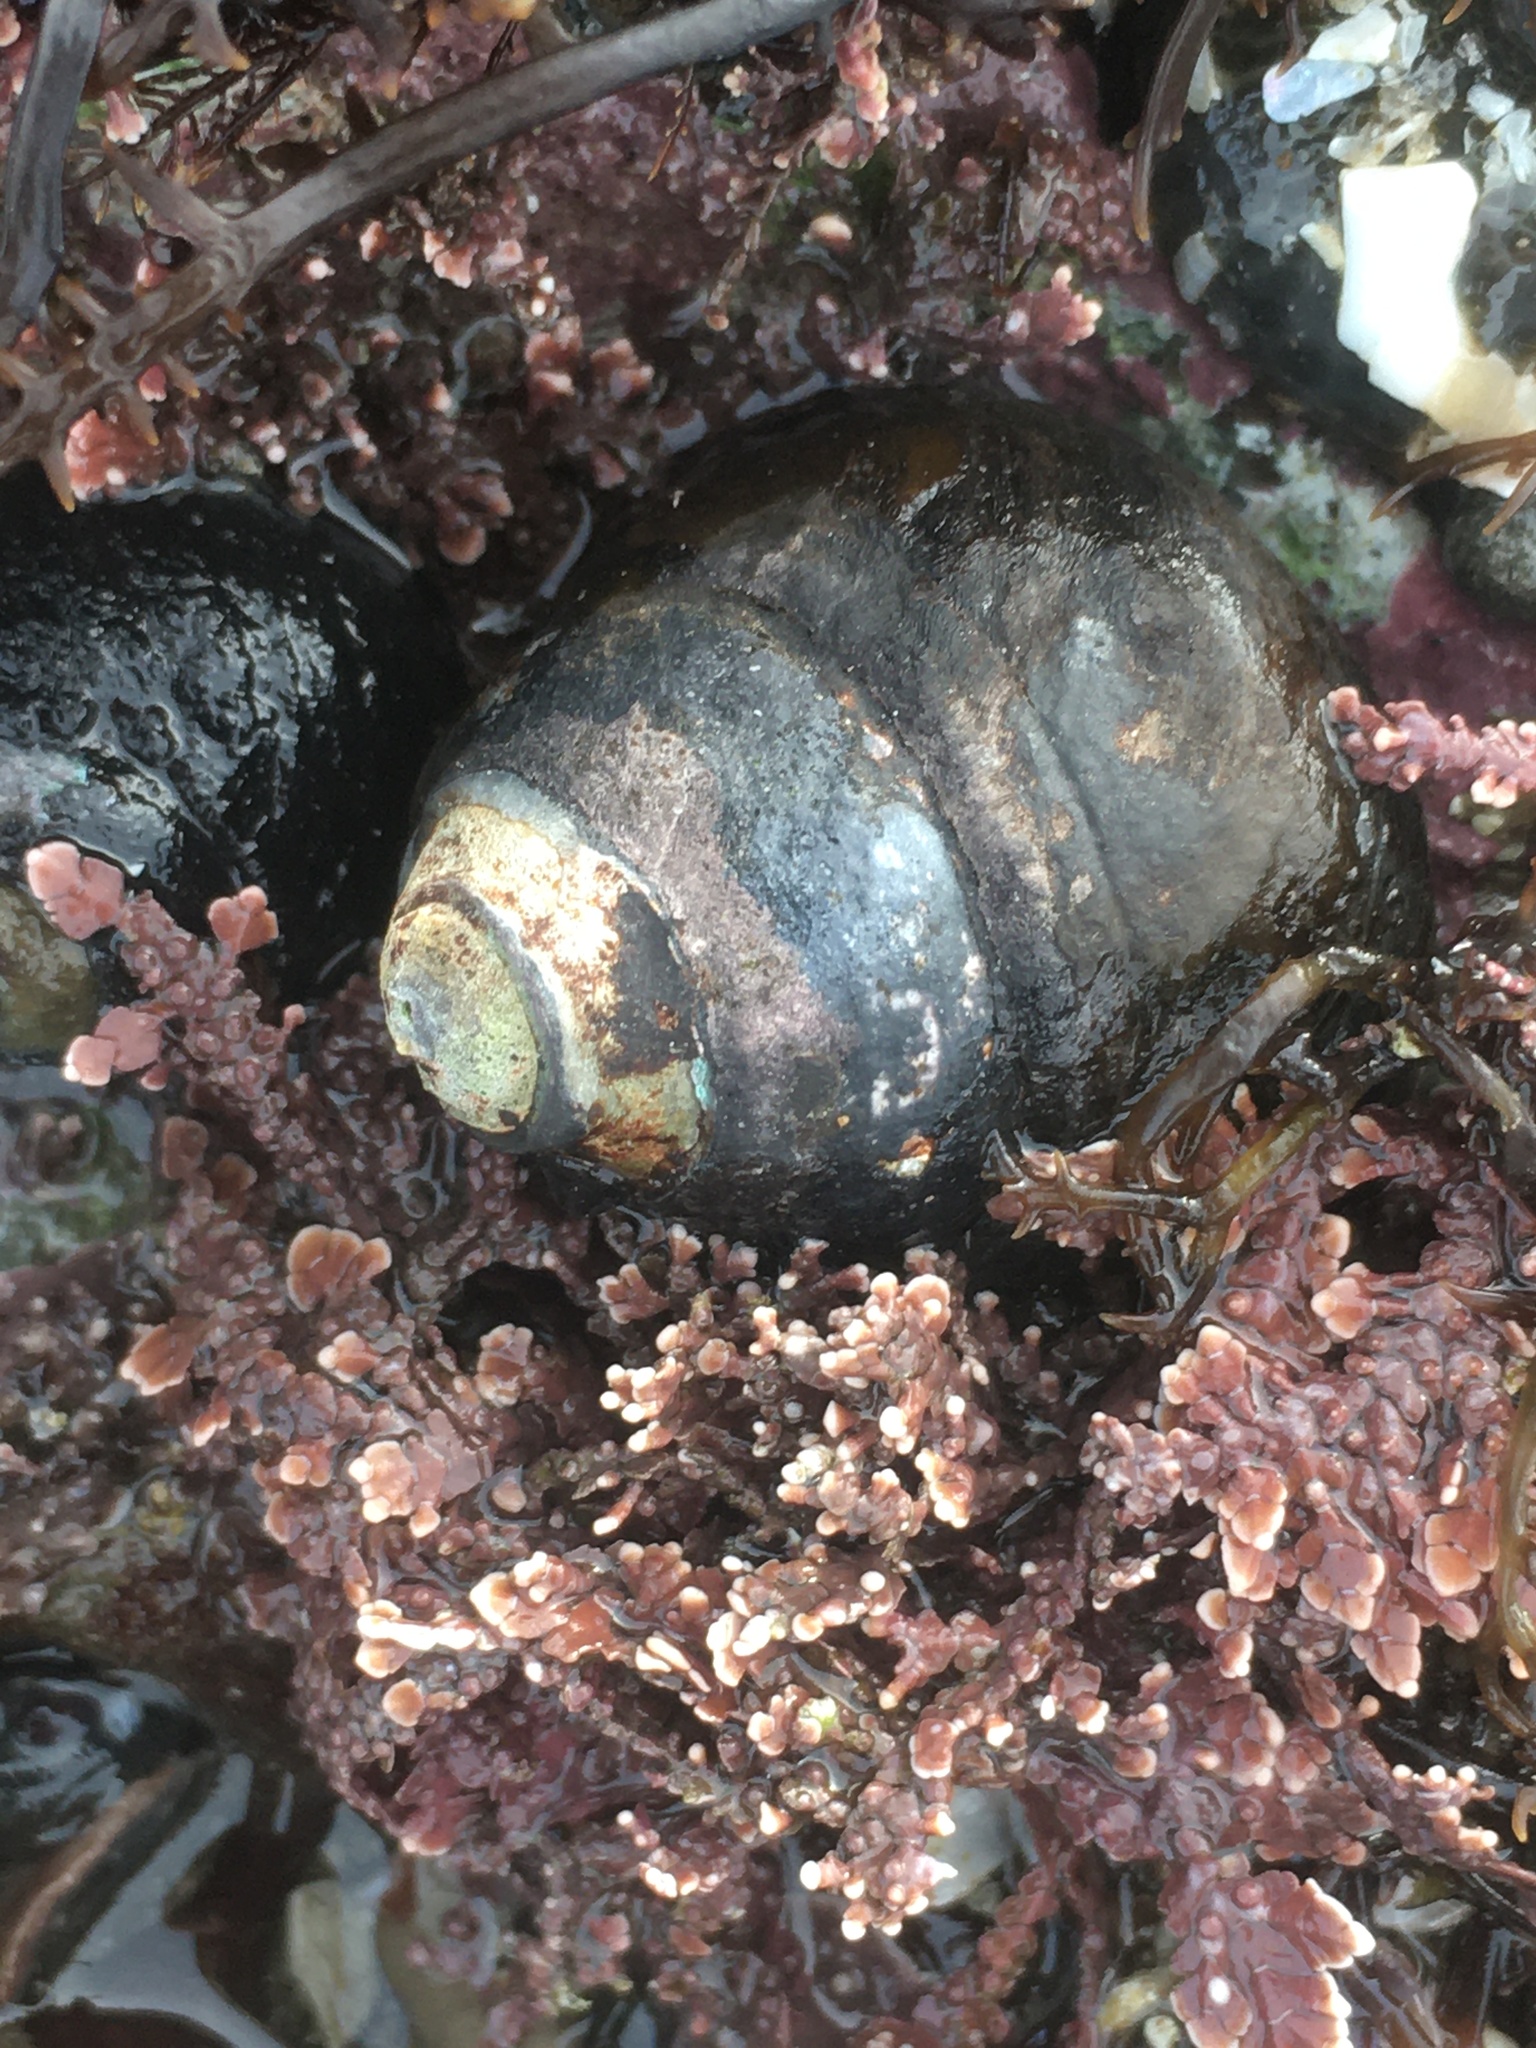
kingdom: Animalia
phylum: Mollusca
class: Gastropoda
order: Trochida
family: Tegulidae
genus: Tegula
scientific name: Tegula funebralis
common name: Black tegula
